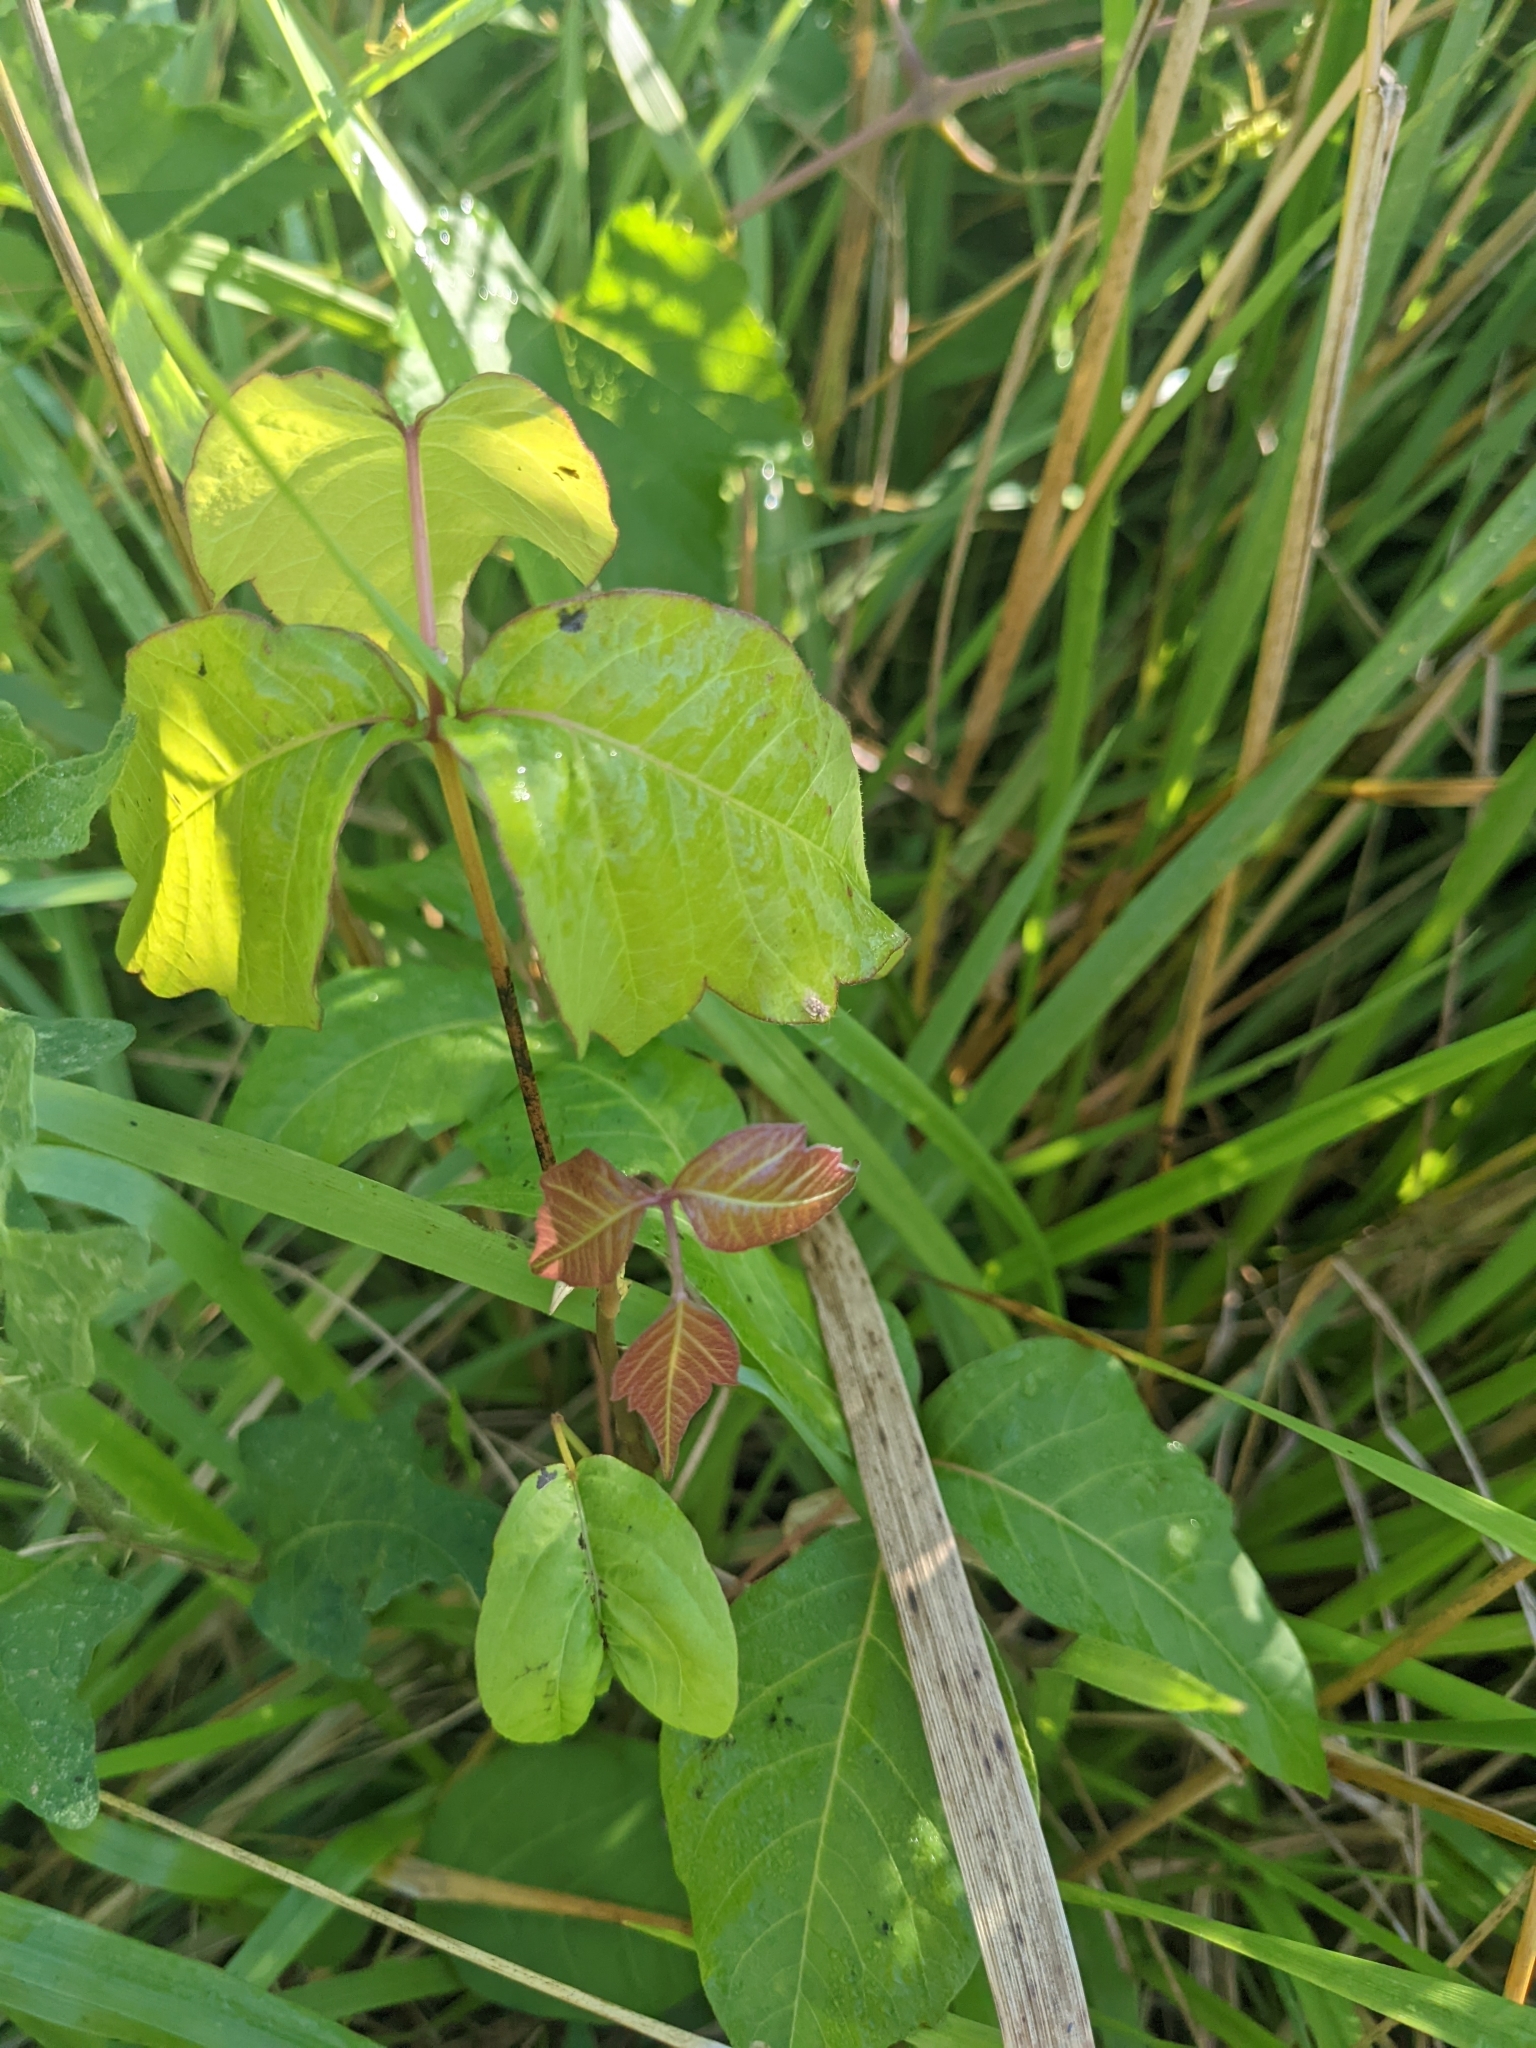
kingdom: Plantae
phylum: Tracheophyta
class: Magnoliopsida
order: Sapindales
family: Anacardiaceae
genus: Toxicodendron
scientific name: Toxicodendron radicans
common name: Poison ivy
